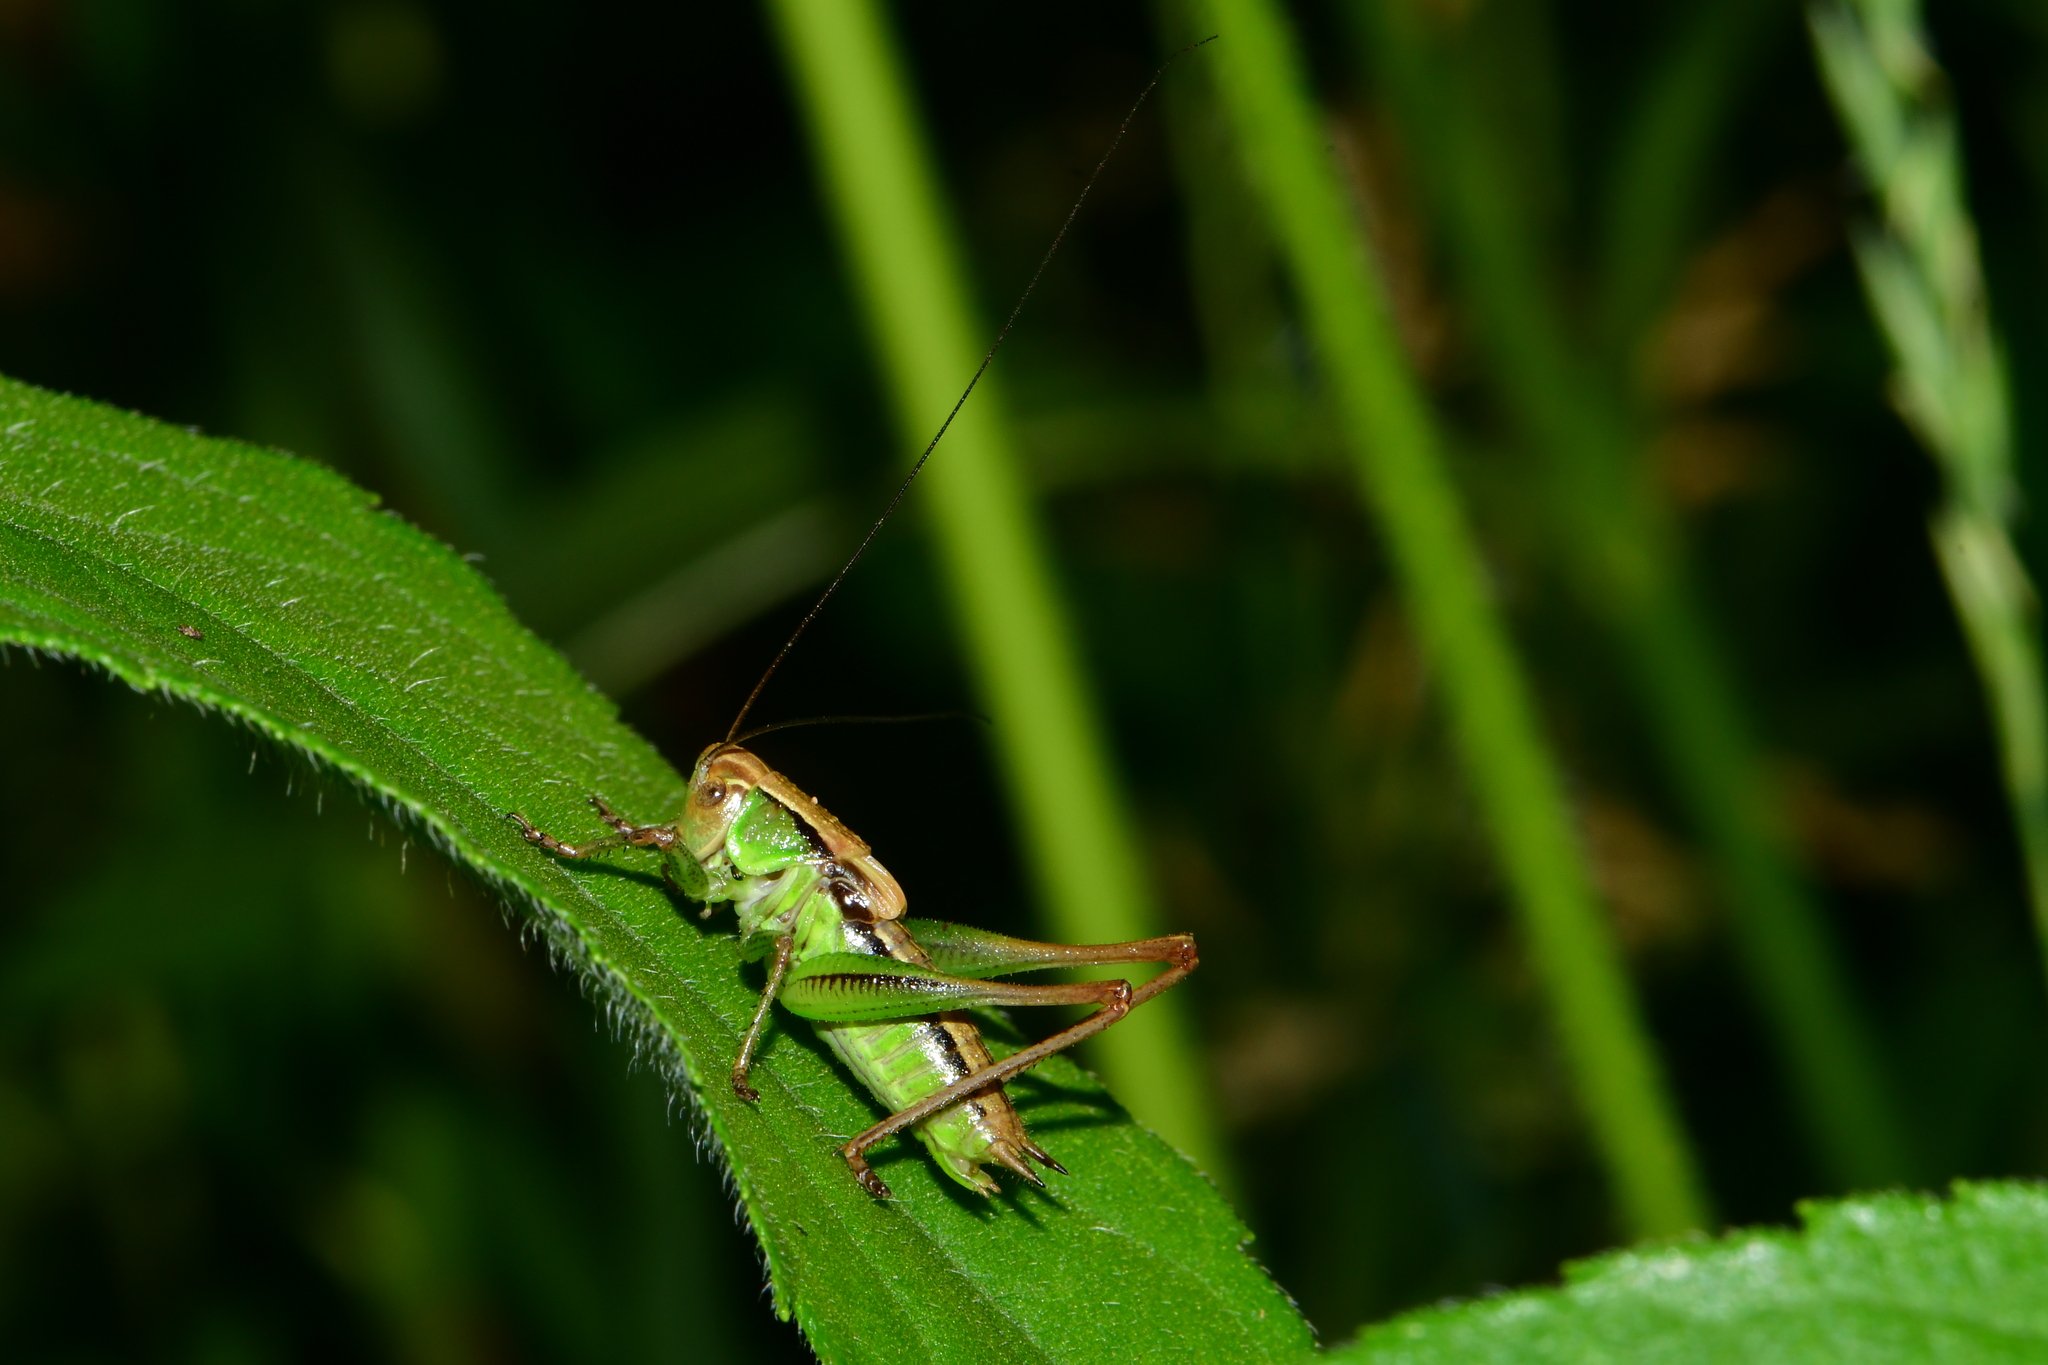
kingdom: Animalia
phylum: Arthropoda
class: Insecta
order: Orthoptera
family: Tettigoniidae
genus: Roeseliana
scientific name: Roeseliana roeselii
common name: Roesel's bush cricket
